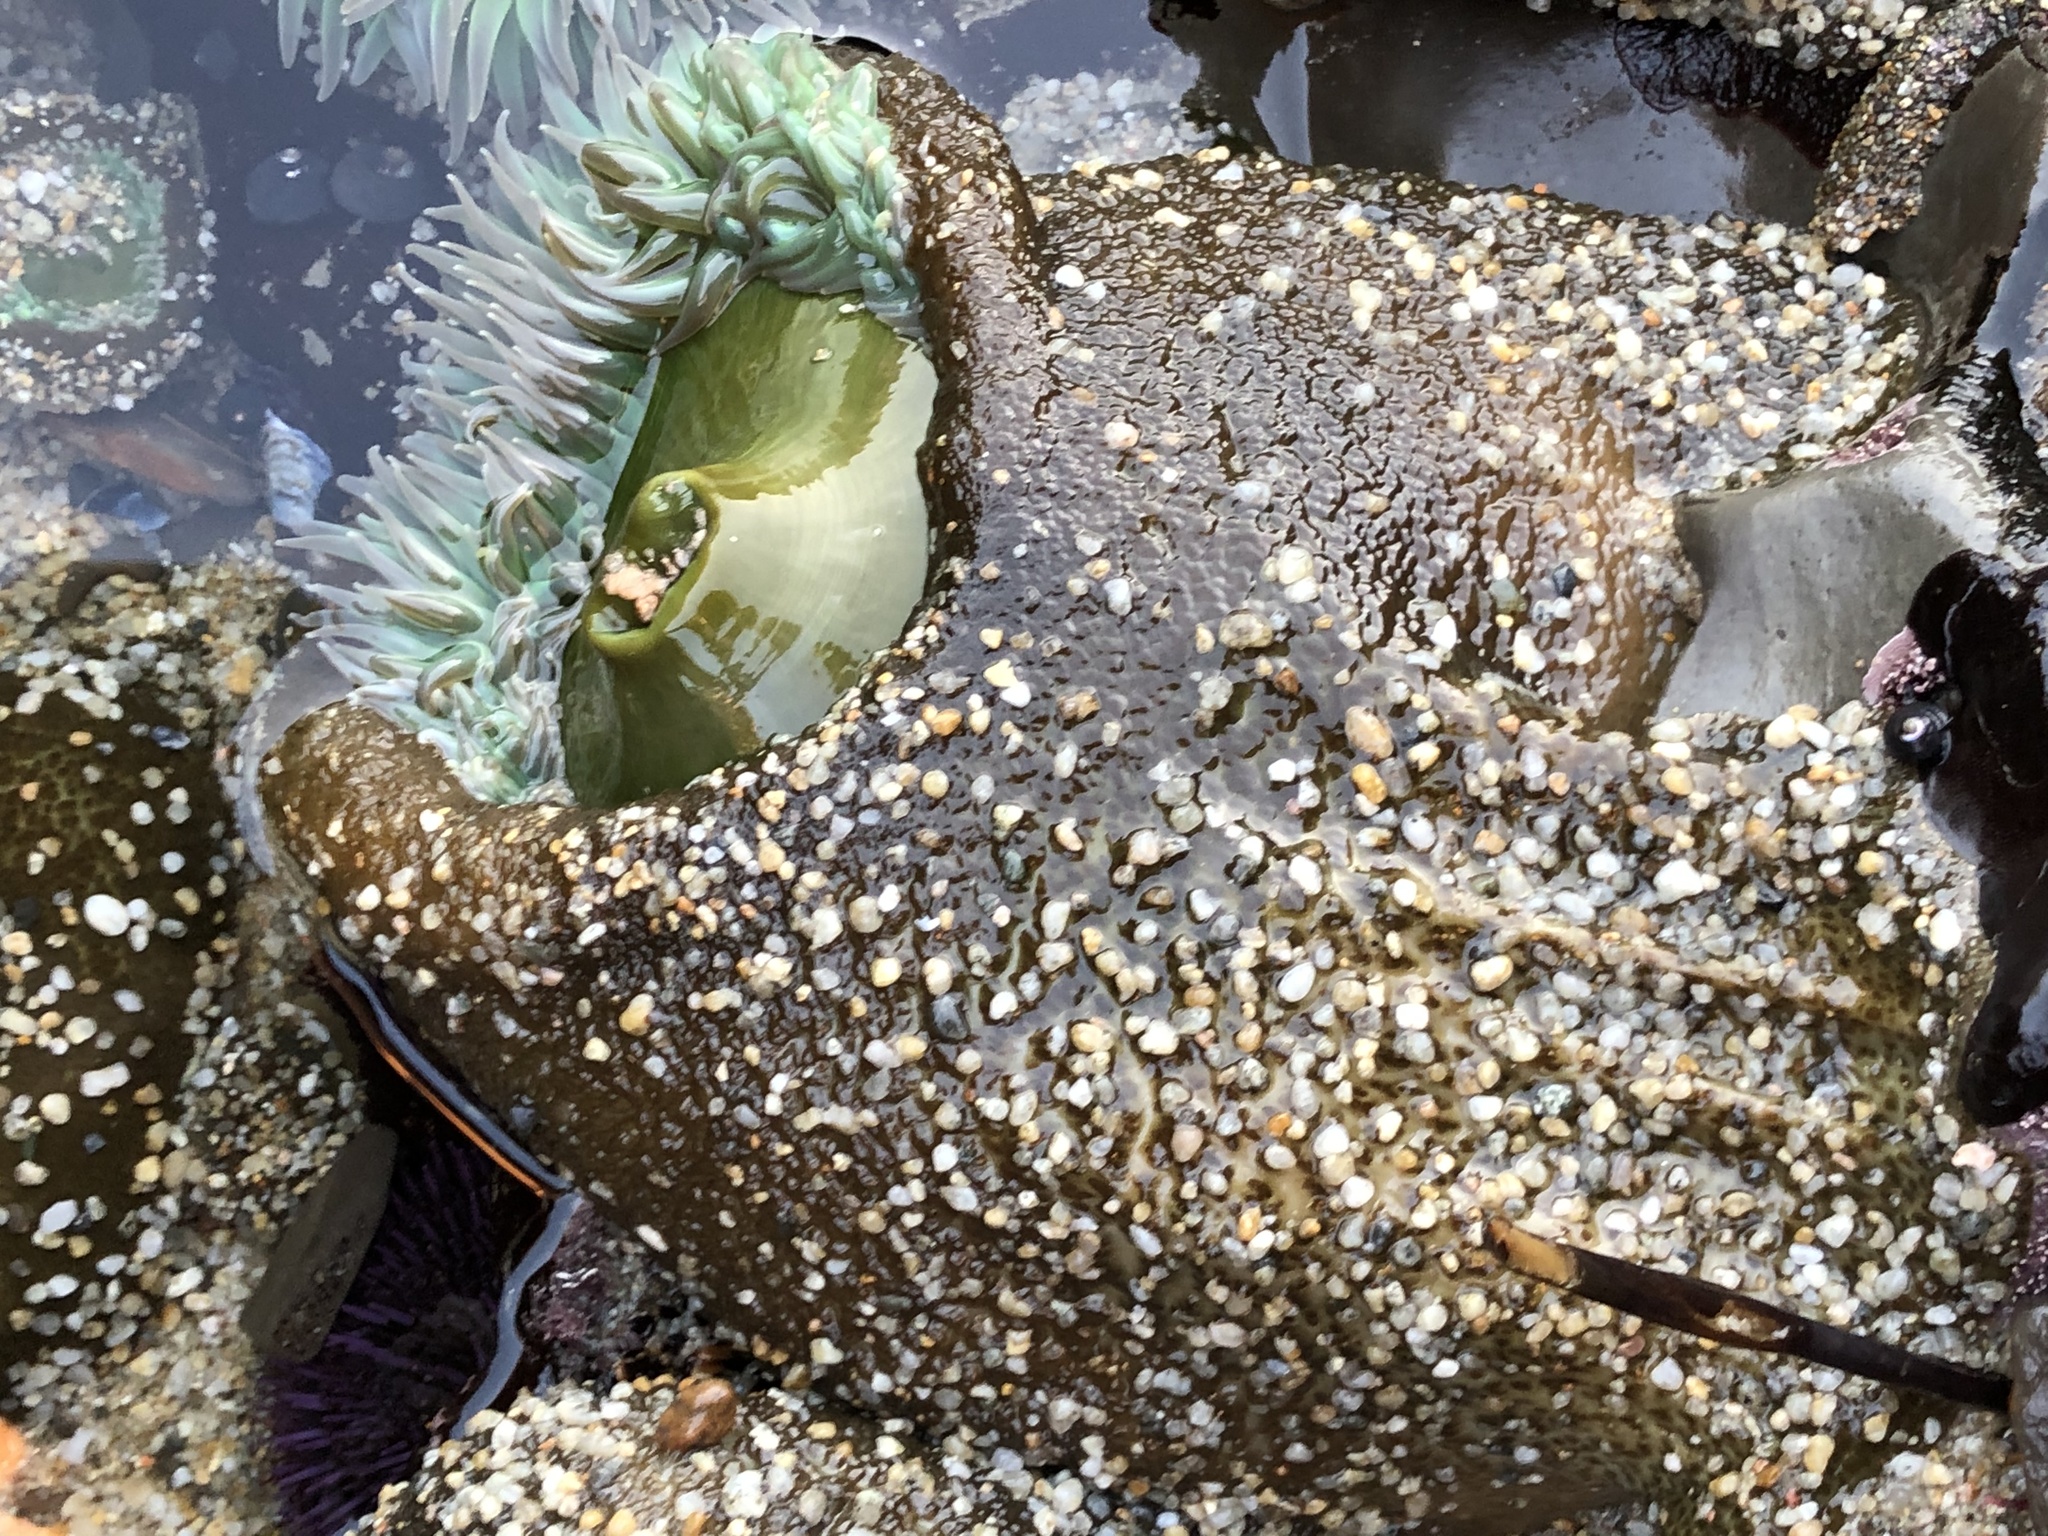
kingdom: Animalia
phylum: Cnidaria
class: Anthozoa
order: Actiniaria
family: Actiniidae
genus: Anthopleura
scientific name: Anthopleura xanthogrammica
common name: Giant green anemone
